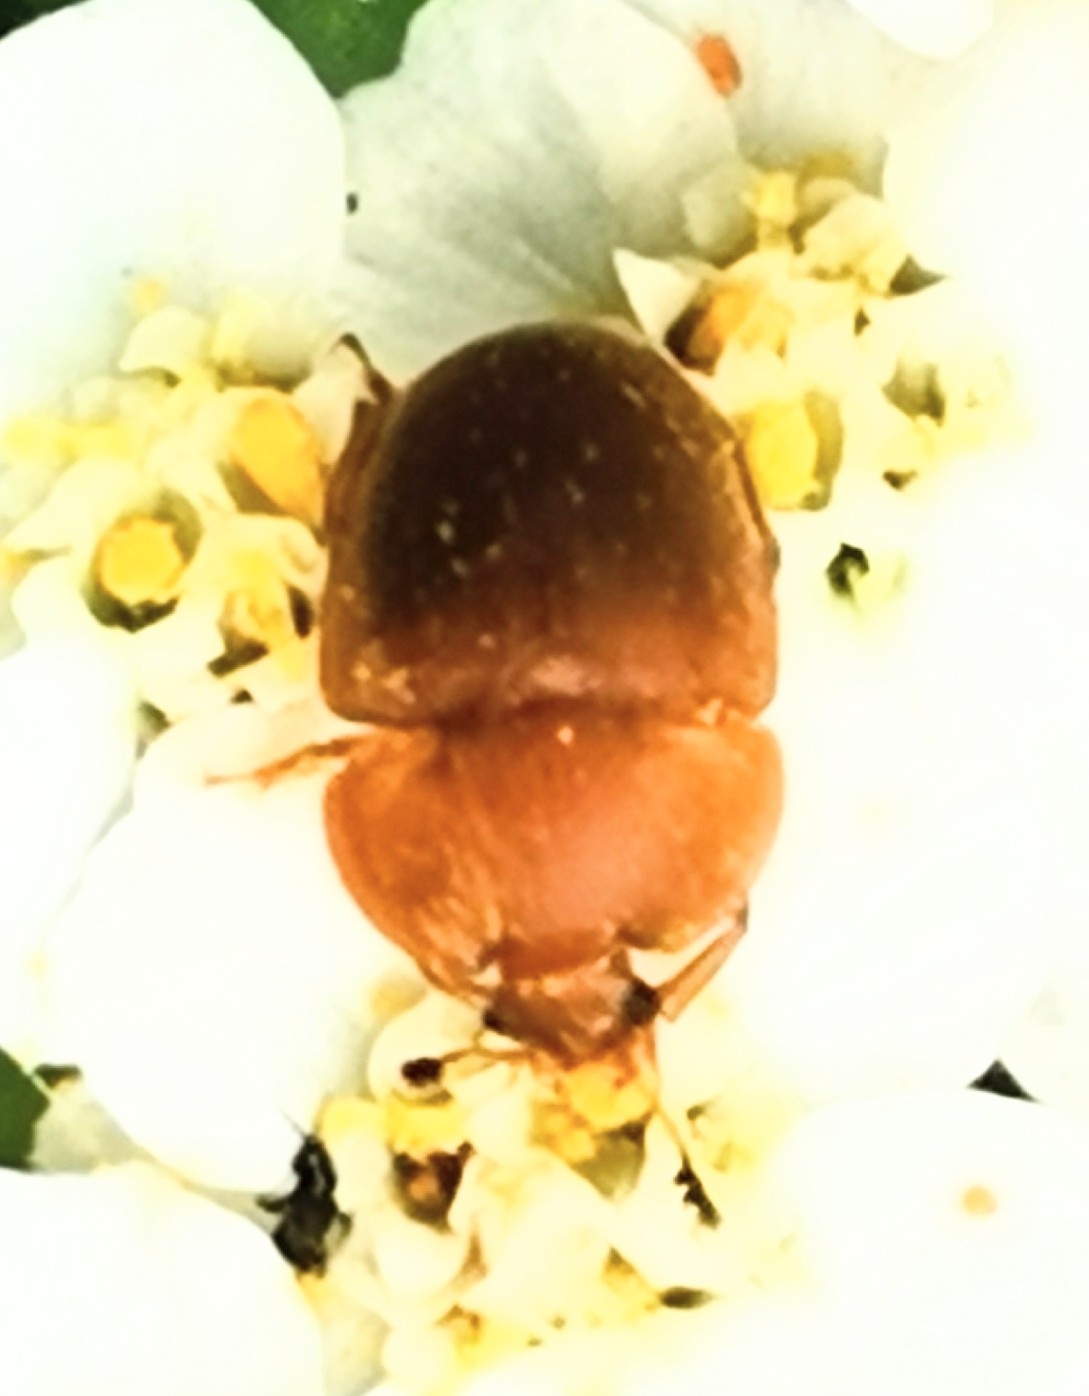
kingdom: Animalia
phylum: Arthropoda
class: Insecta
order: Coleoptera
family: Nitidulidae
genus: Cychramus
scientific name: Cychramus luteus
